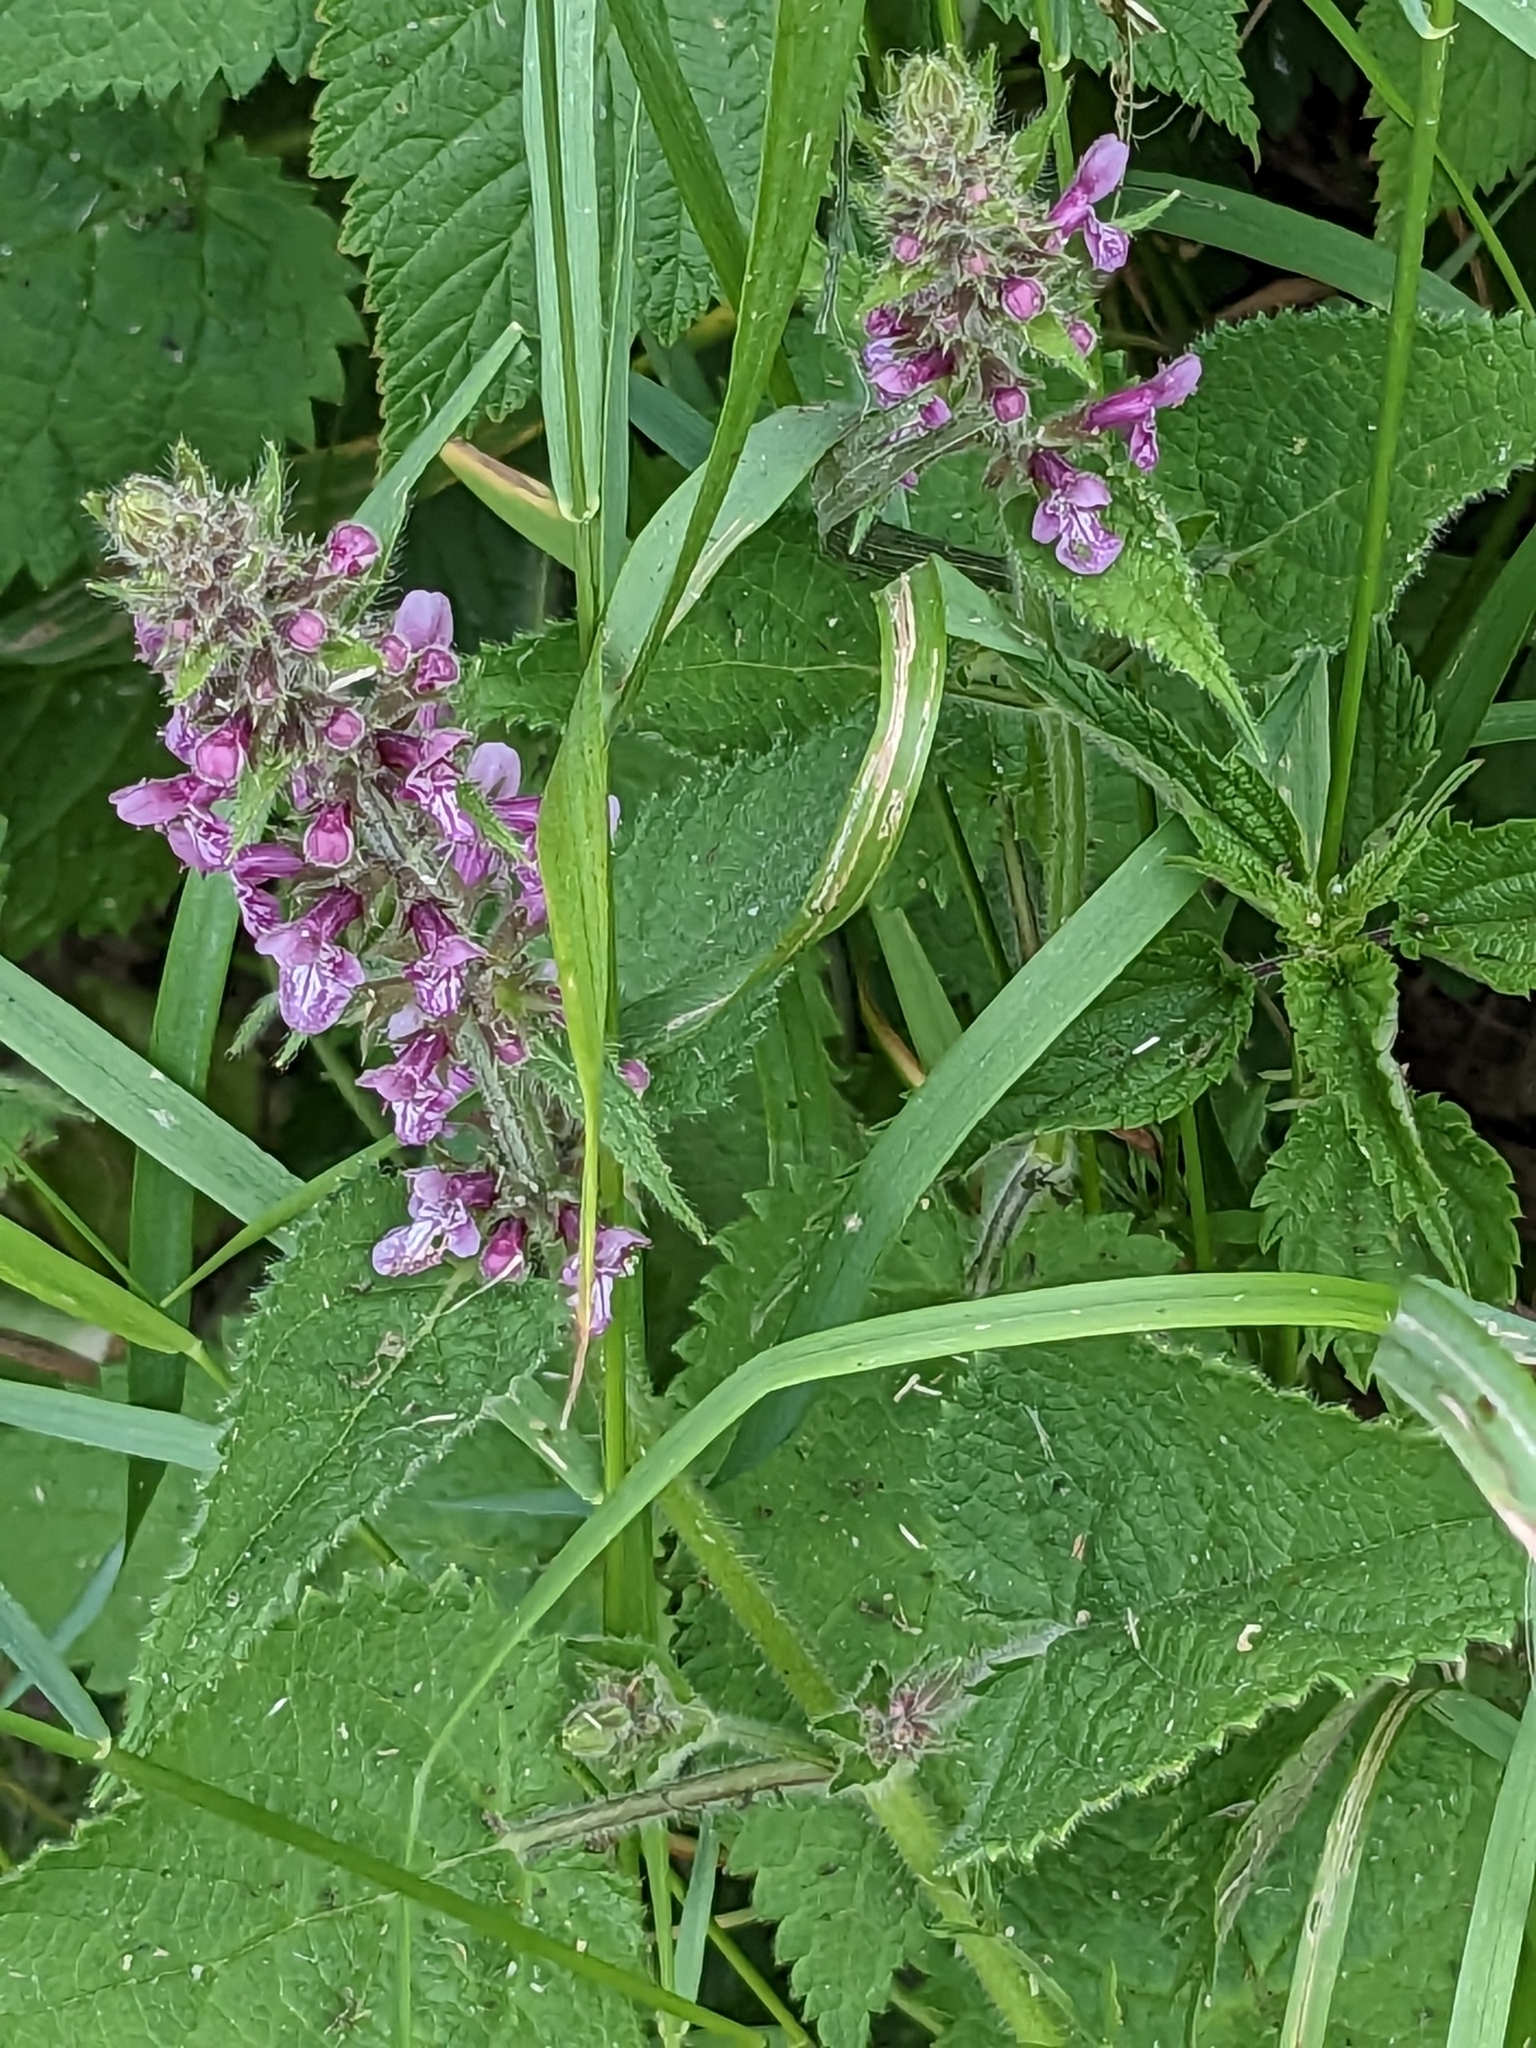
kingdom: Plantae
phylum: Tracheophyta
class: Magnoliopsida
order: Lamiales
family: Lamiaceae
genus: Stachys
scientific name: Stachys sylvatica
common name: Hedge woundwort
